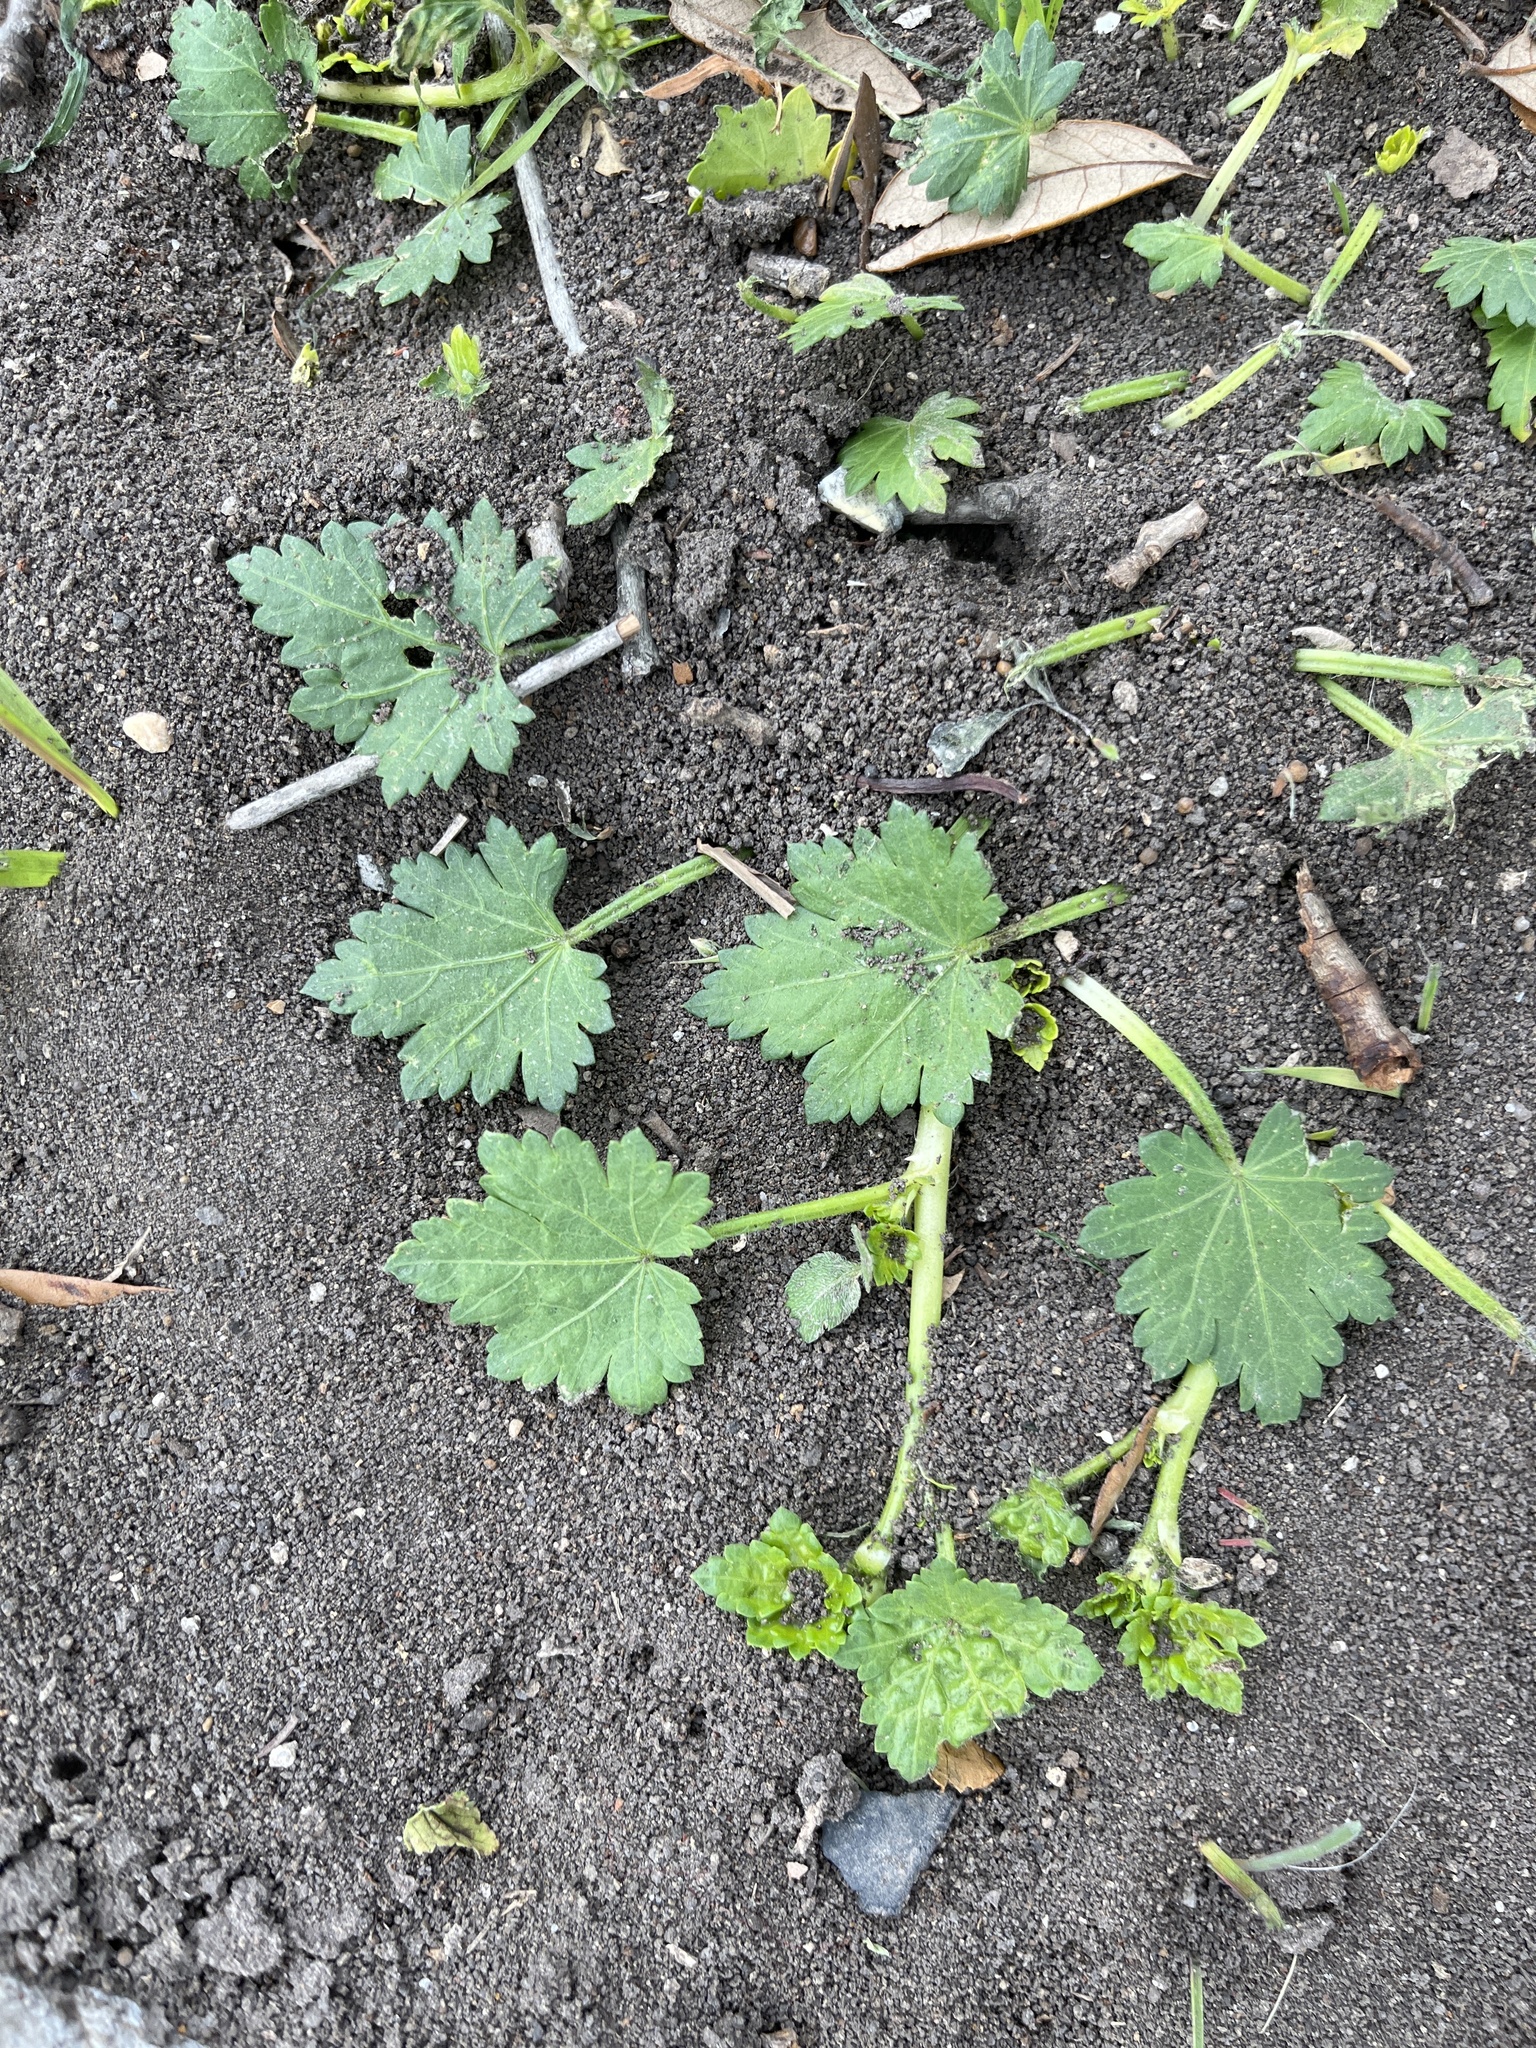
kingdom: Plantae
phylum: Tracheophyta
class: Magnoliopsida
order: Malvales
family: Malvaceae
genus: Modiola
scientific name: Modiola caroliniana
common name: Carolina bristlemallow
